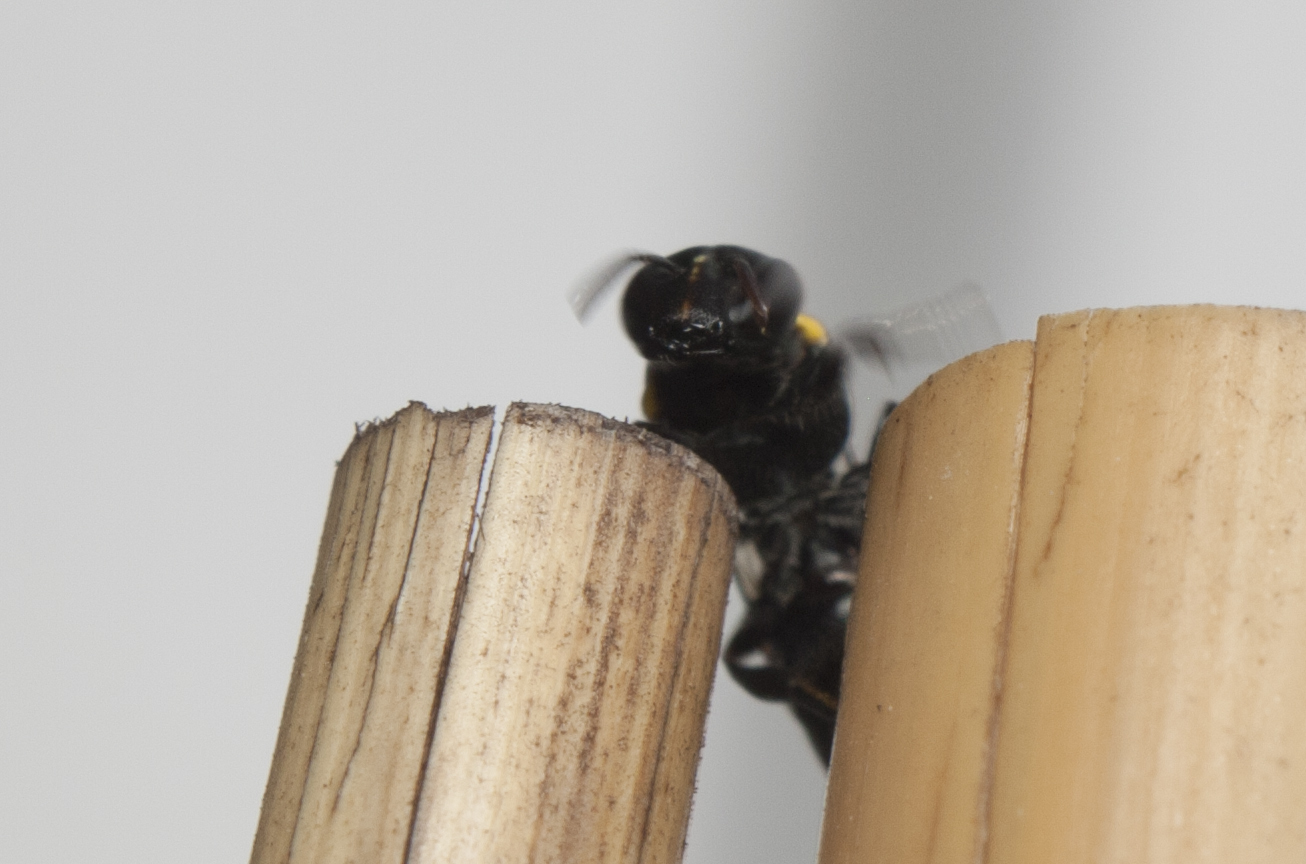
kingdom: Animalia
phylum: Arthropoda
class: Insecta
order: Hymenoptera
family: Colletidae
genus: Amphylaeus
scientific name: Amphylaeus obscuriceps
